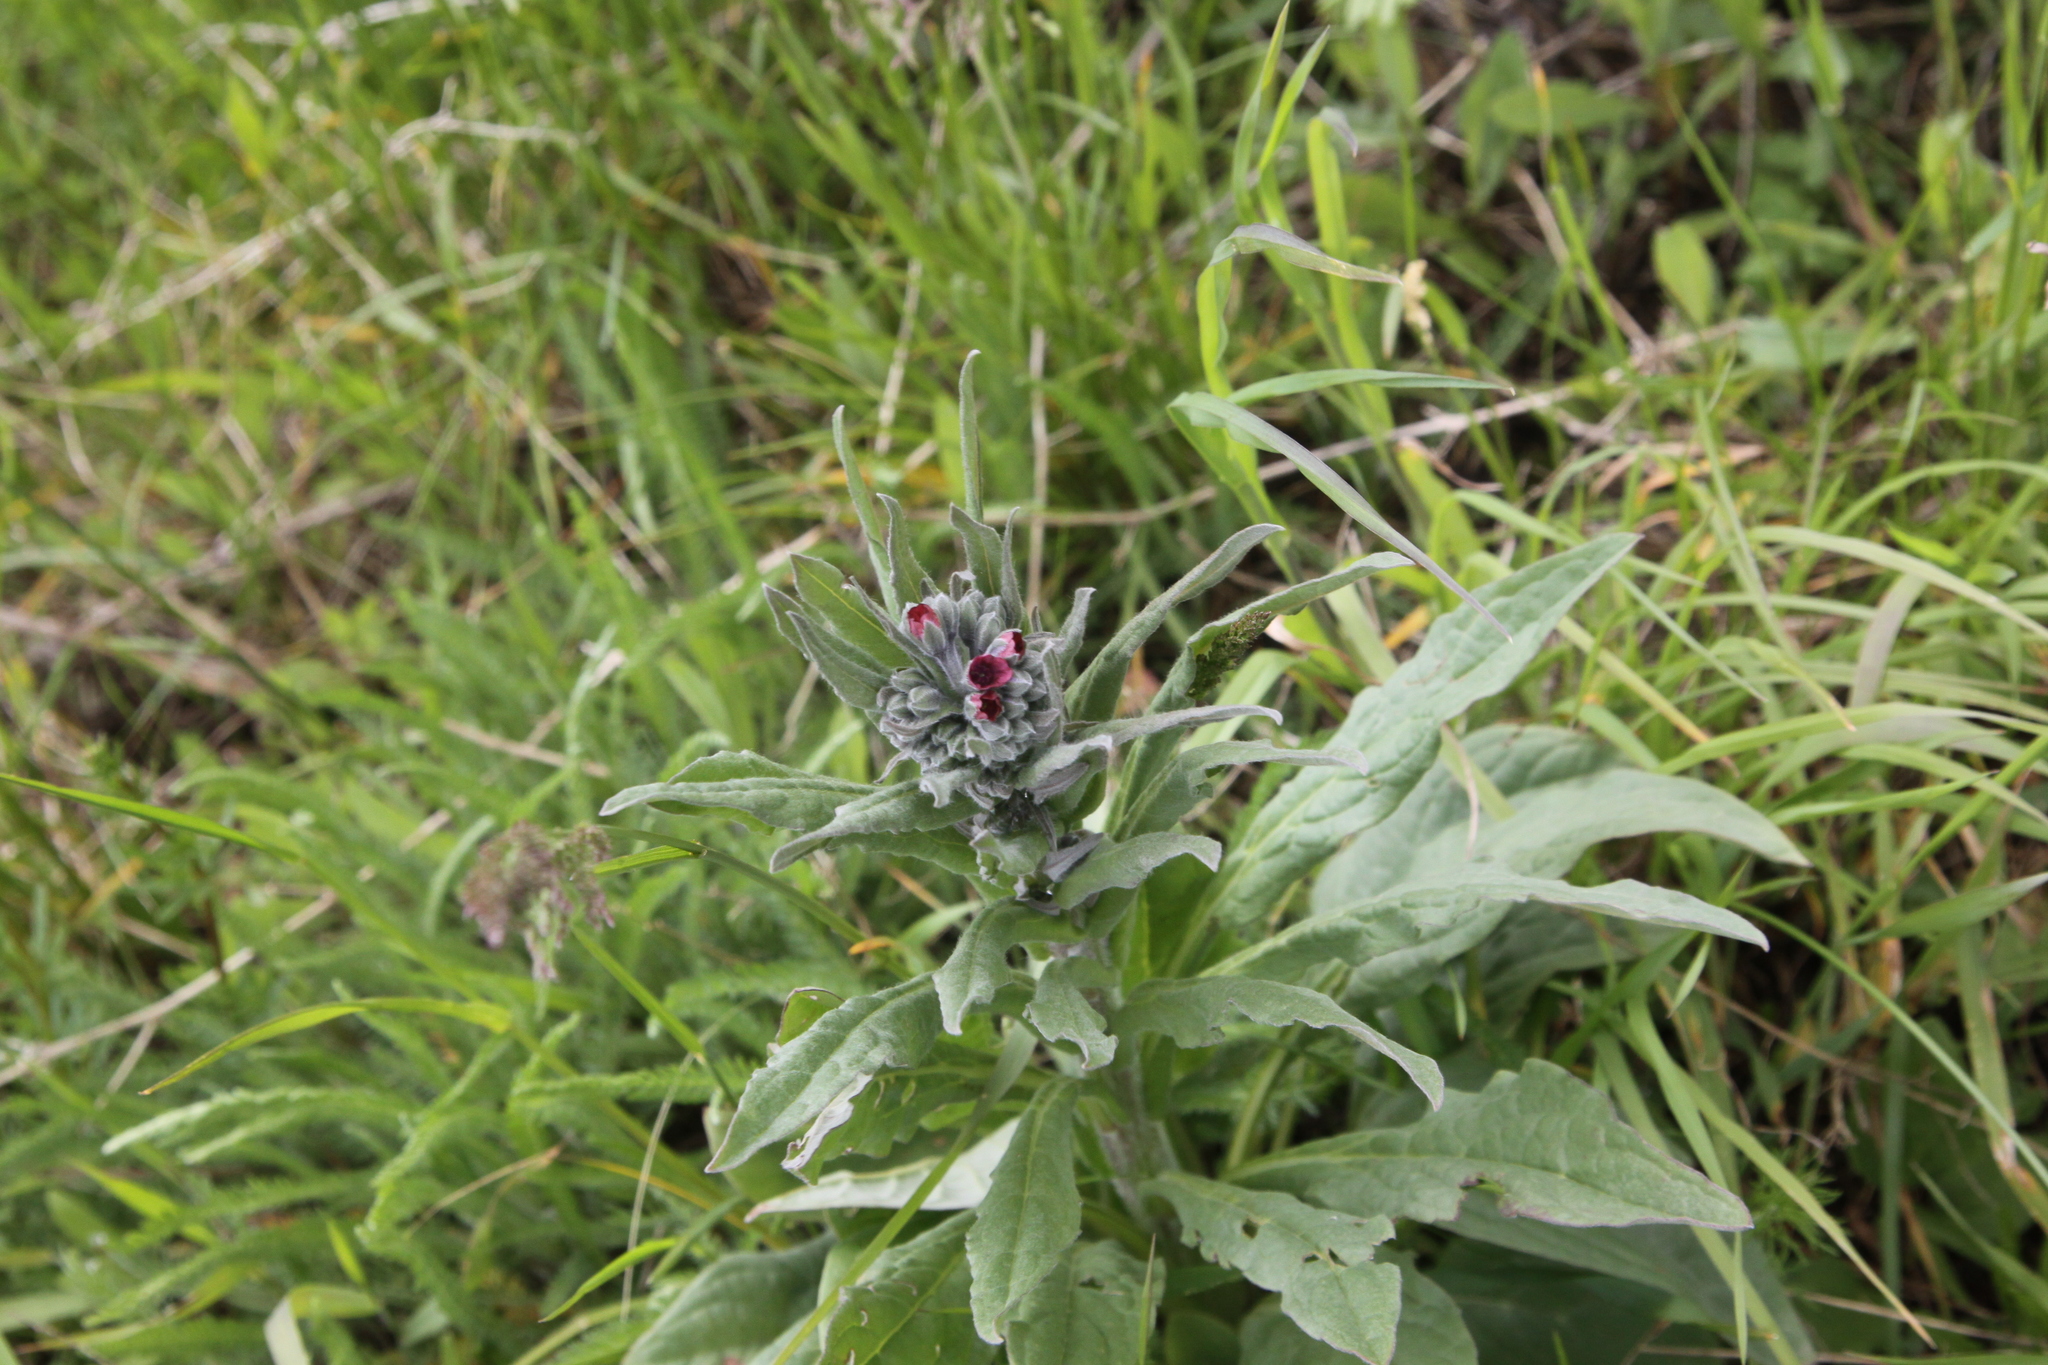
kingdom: Plantae
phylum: Tracheophyta
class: Magnoliopsida
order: Boraginales
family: Boraginaceae
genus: Cynoglossum
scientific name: Cynoglossum officinale
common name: Hound's-tongue
